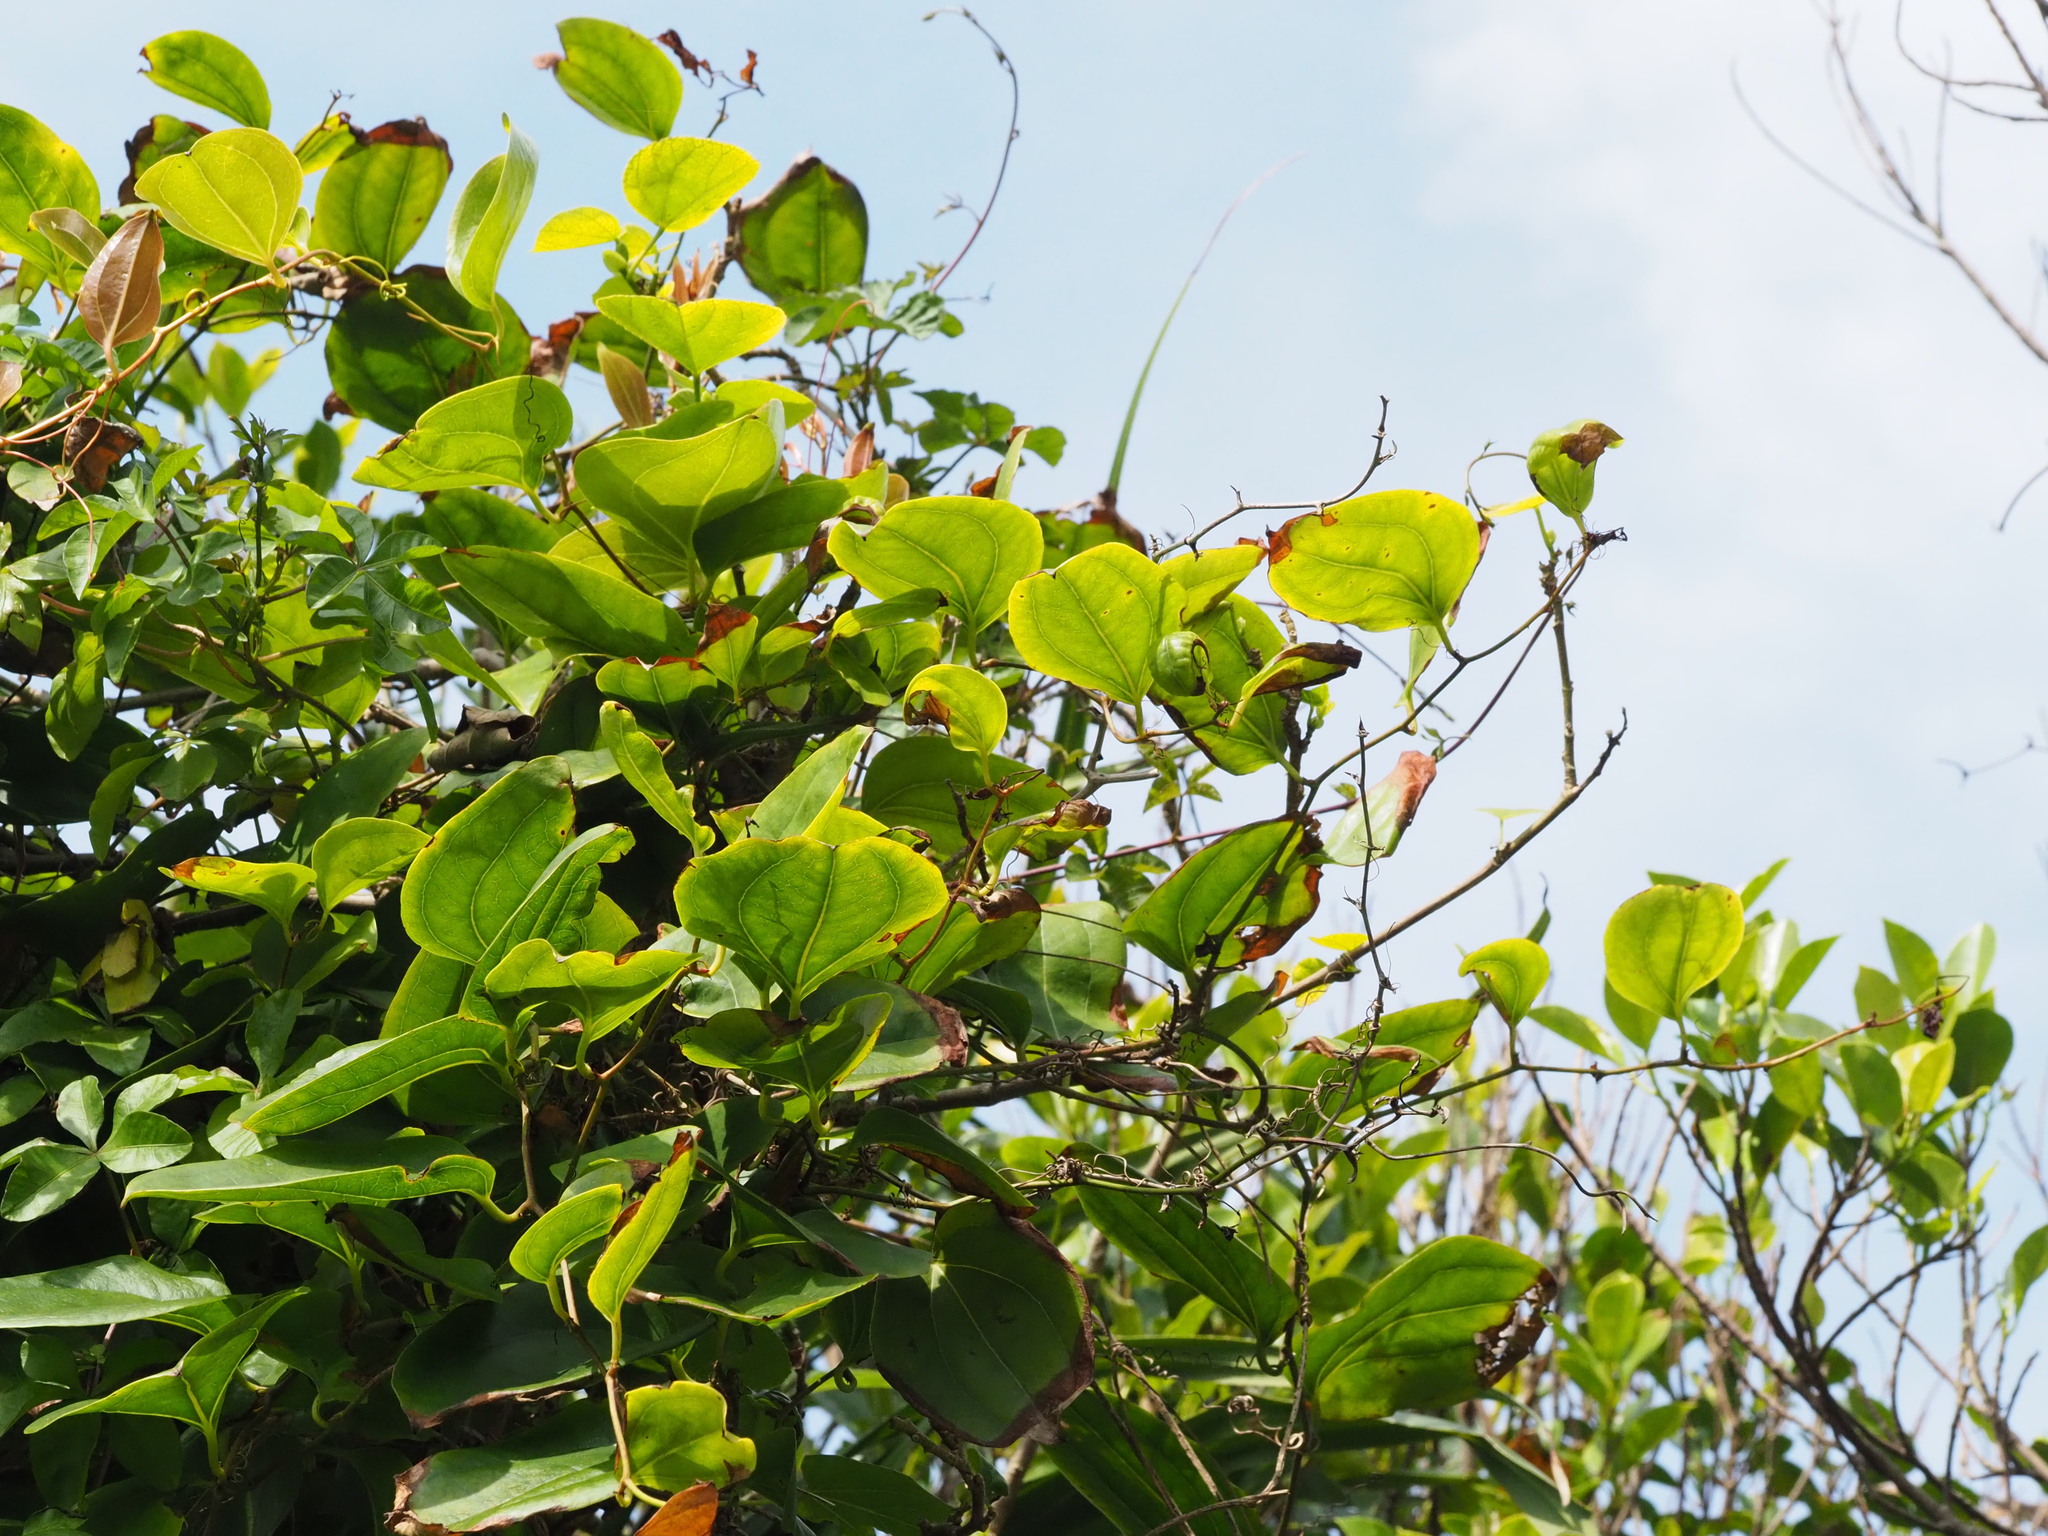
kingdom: Plantae
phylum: Tracheophyta
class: Liliopsida
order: Liliales
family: Smilacaceae
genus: Smilax
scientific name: Smilax china
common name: Chinaroot
